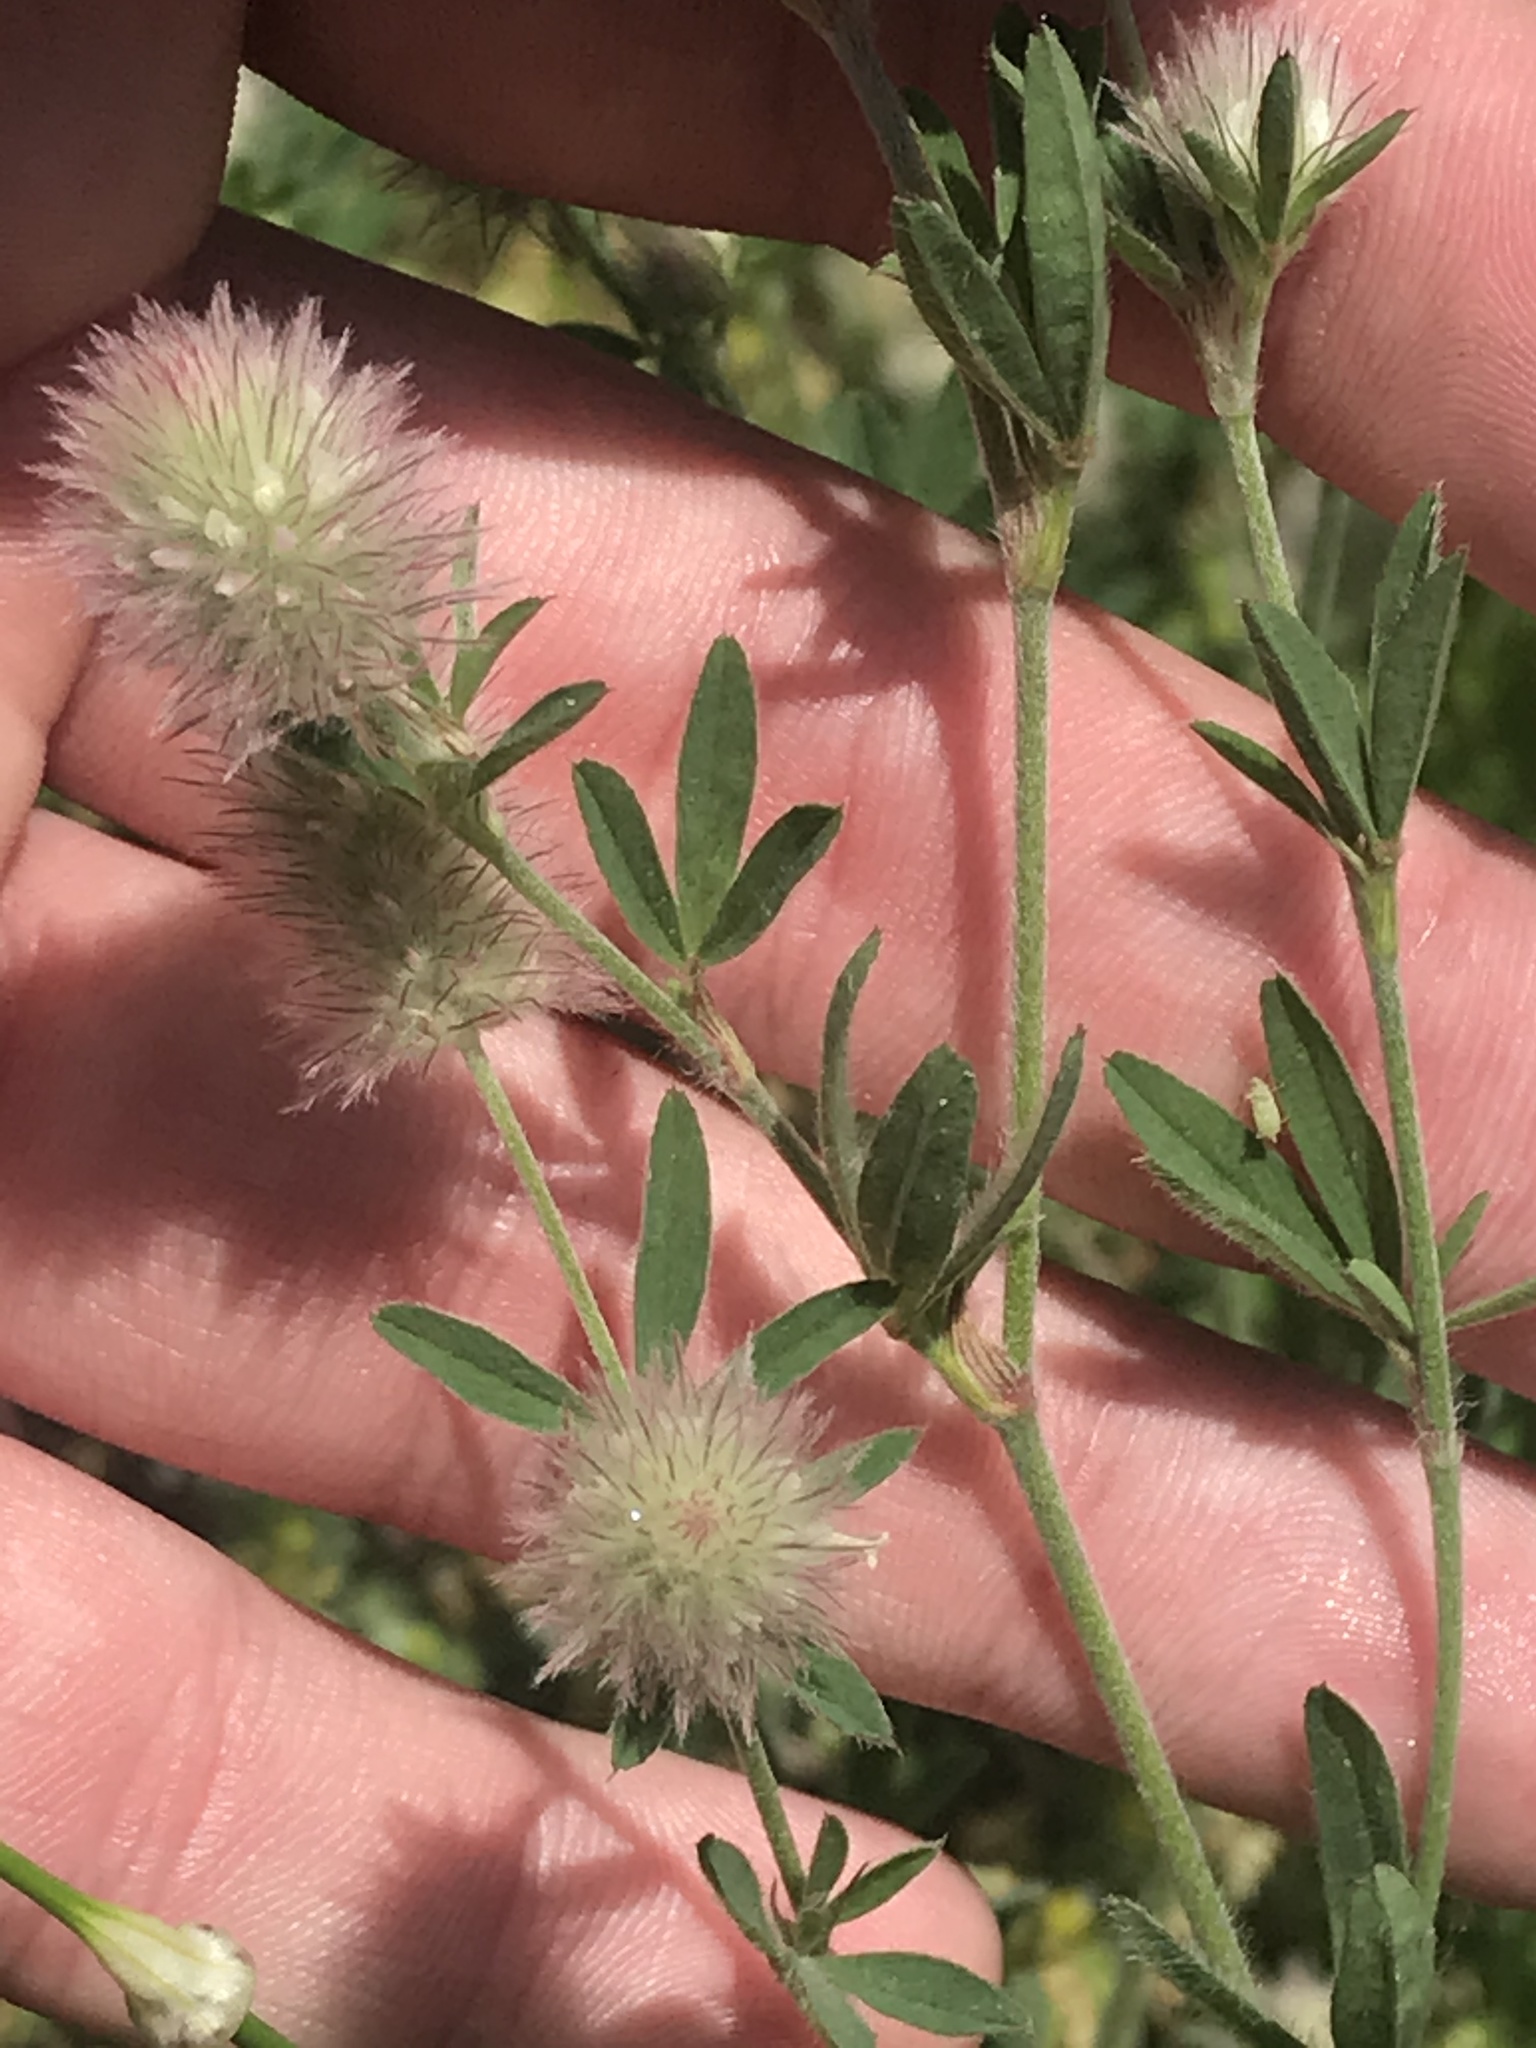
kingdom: Plantae
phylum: Tracheophyta
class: Magnoliopsida
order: Fabales
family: Fabaceae
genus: Trifolium
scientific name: Trifolium arvense
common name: Hare's-foot clover
